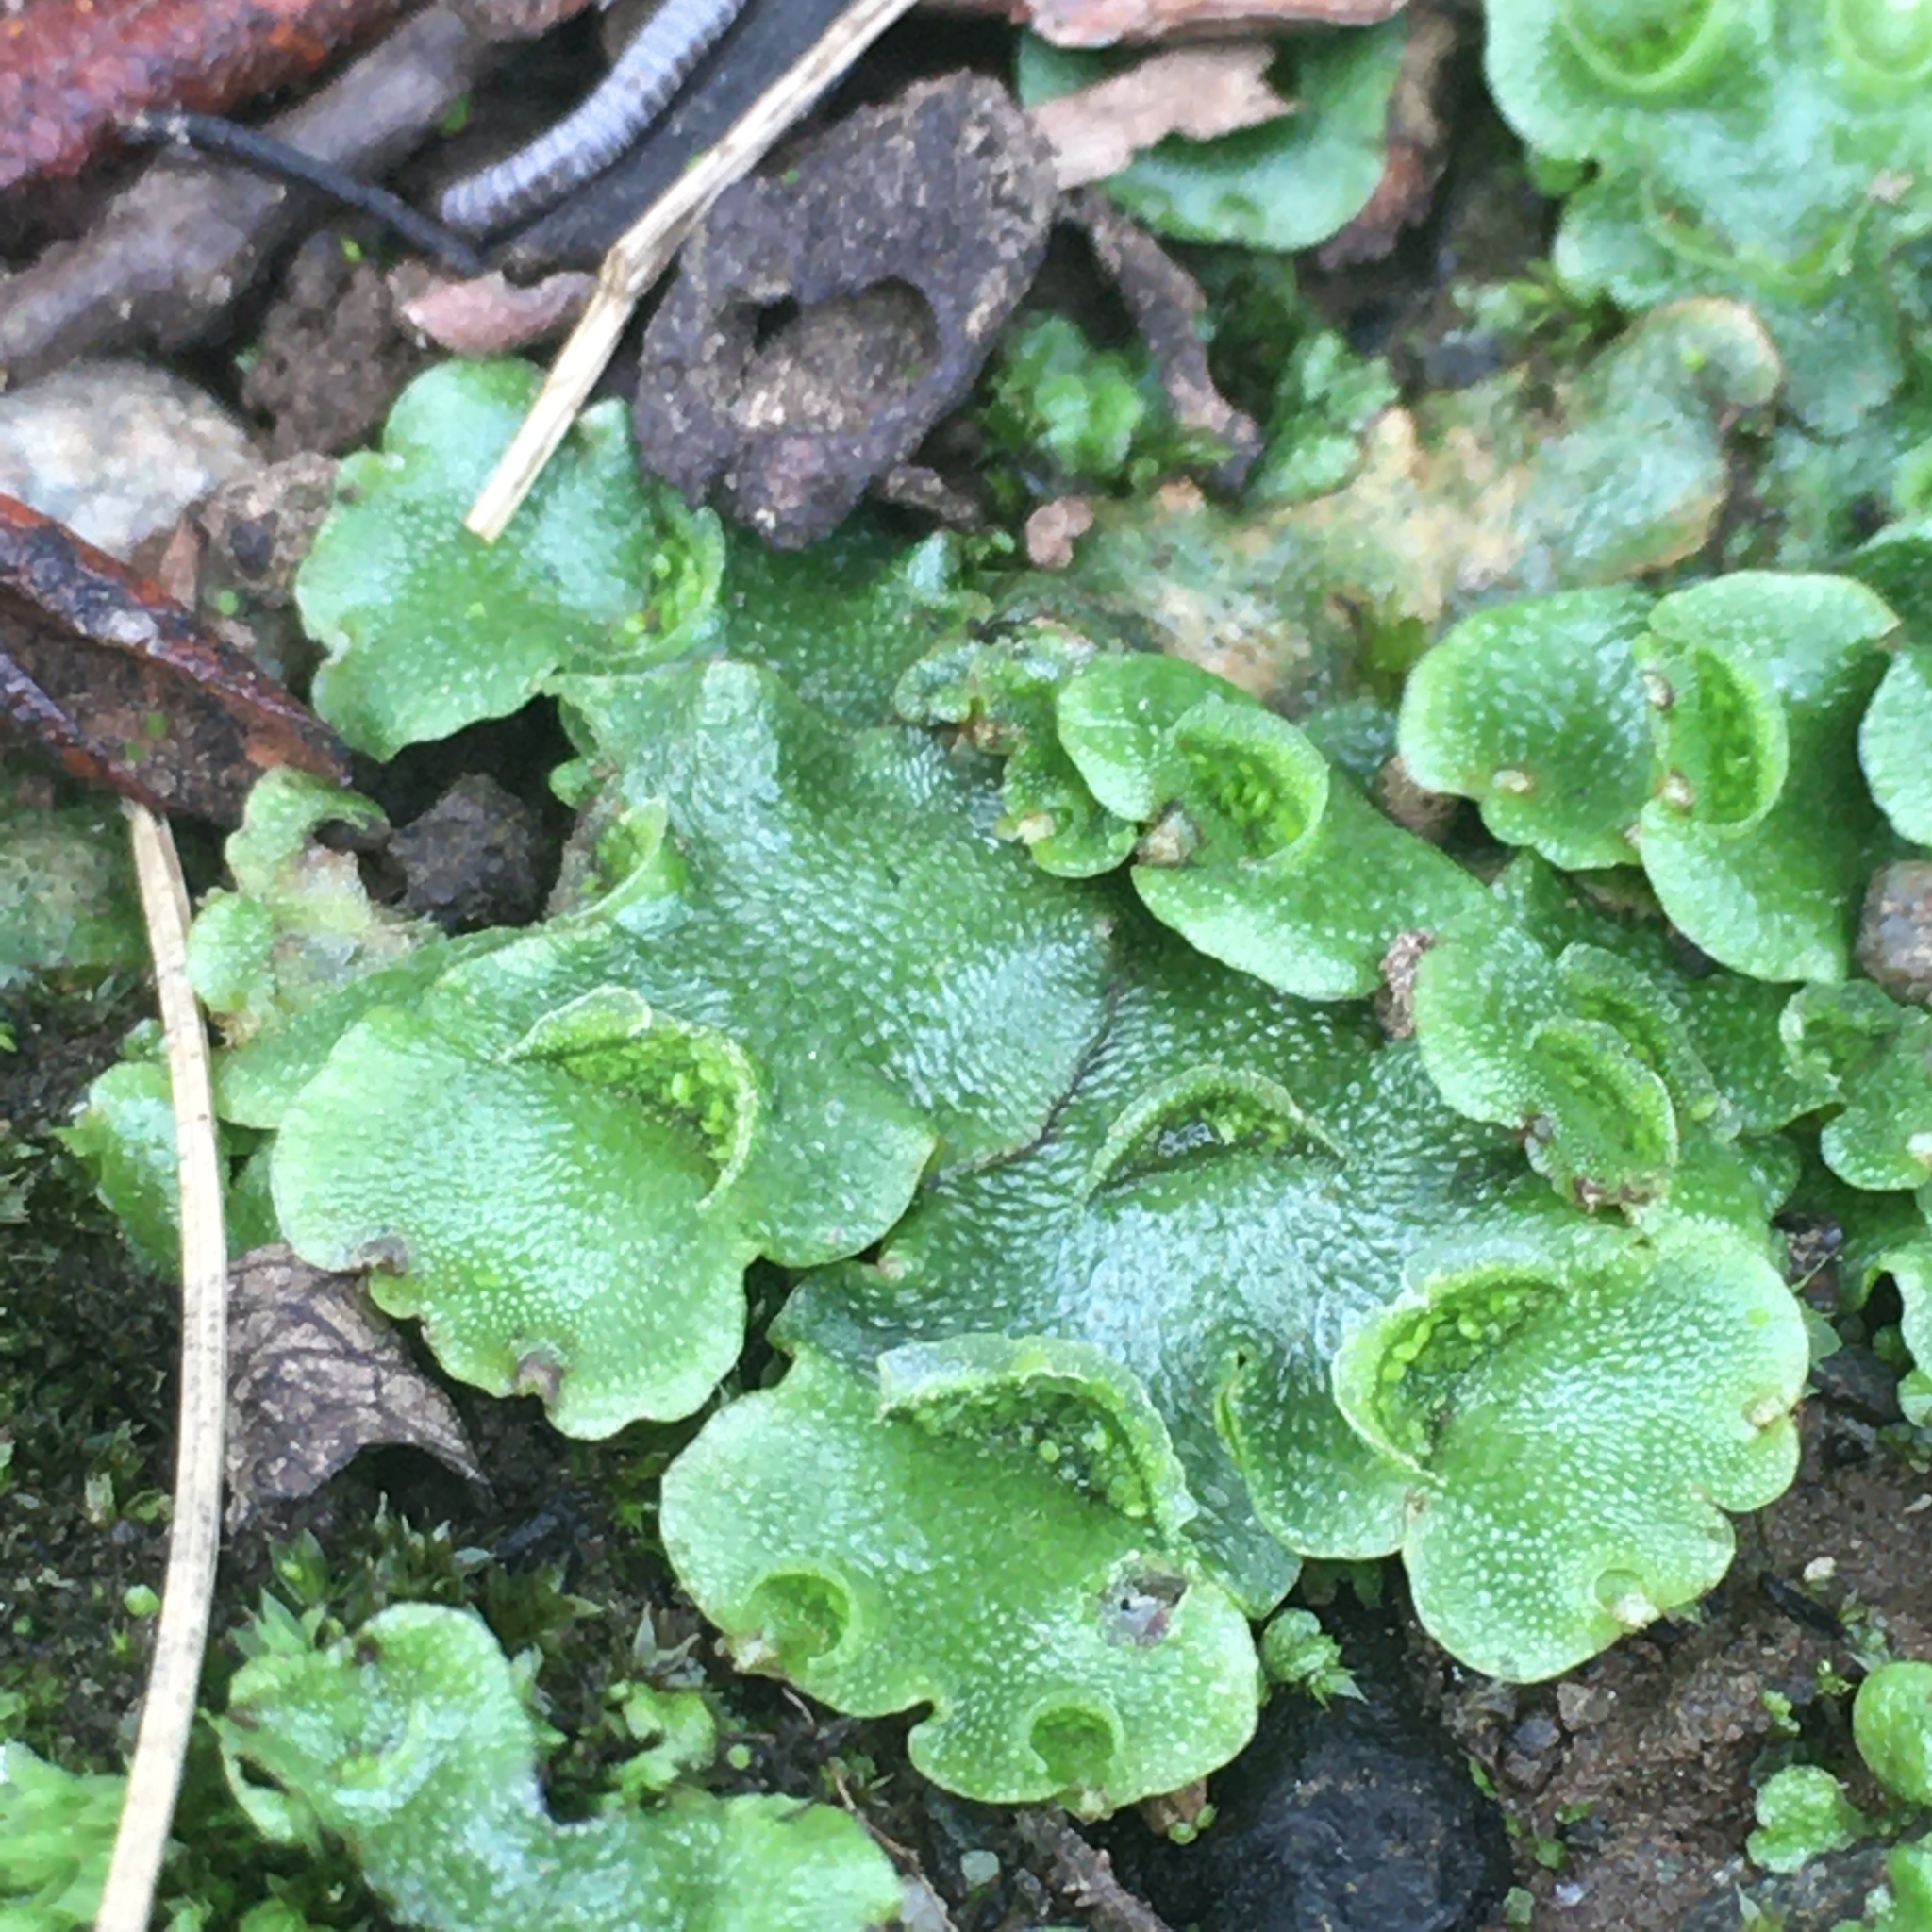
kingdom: Plantae
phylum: Marchantiophyta
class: Marchantiopsida
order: Lunulariales
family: Lunulariaceae
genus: Lunularia
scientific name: Lunularia cruciata
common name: Crescent-cup liverwort
